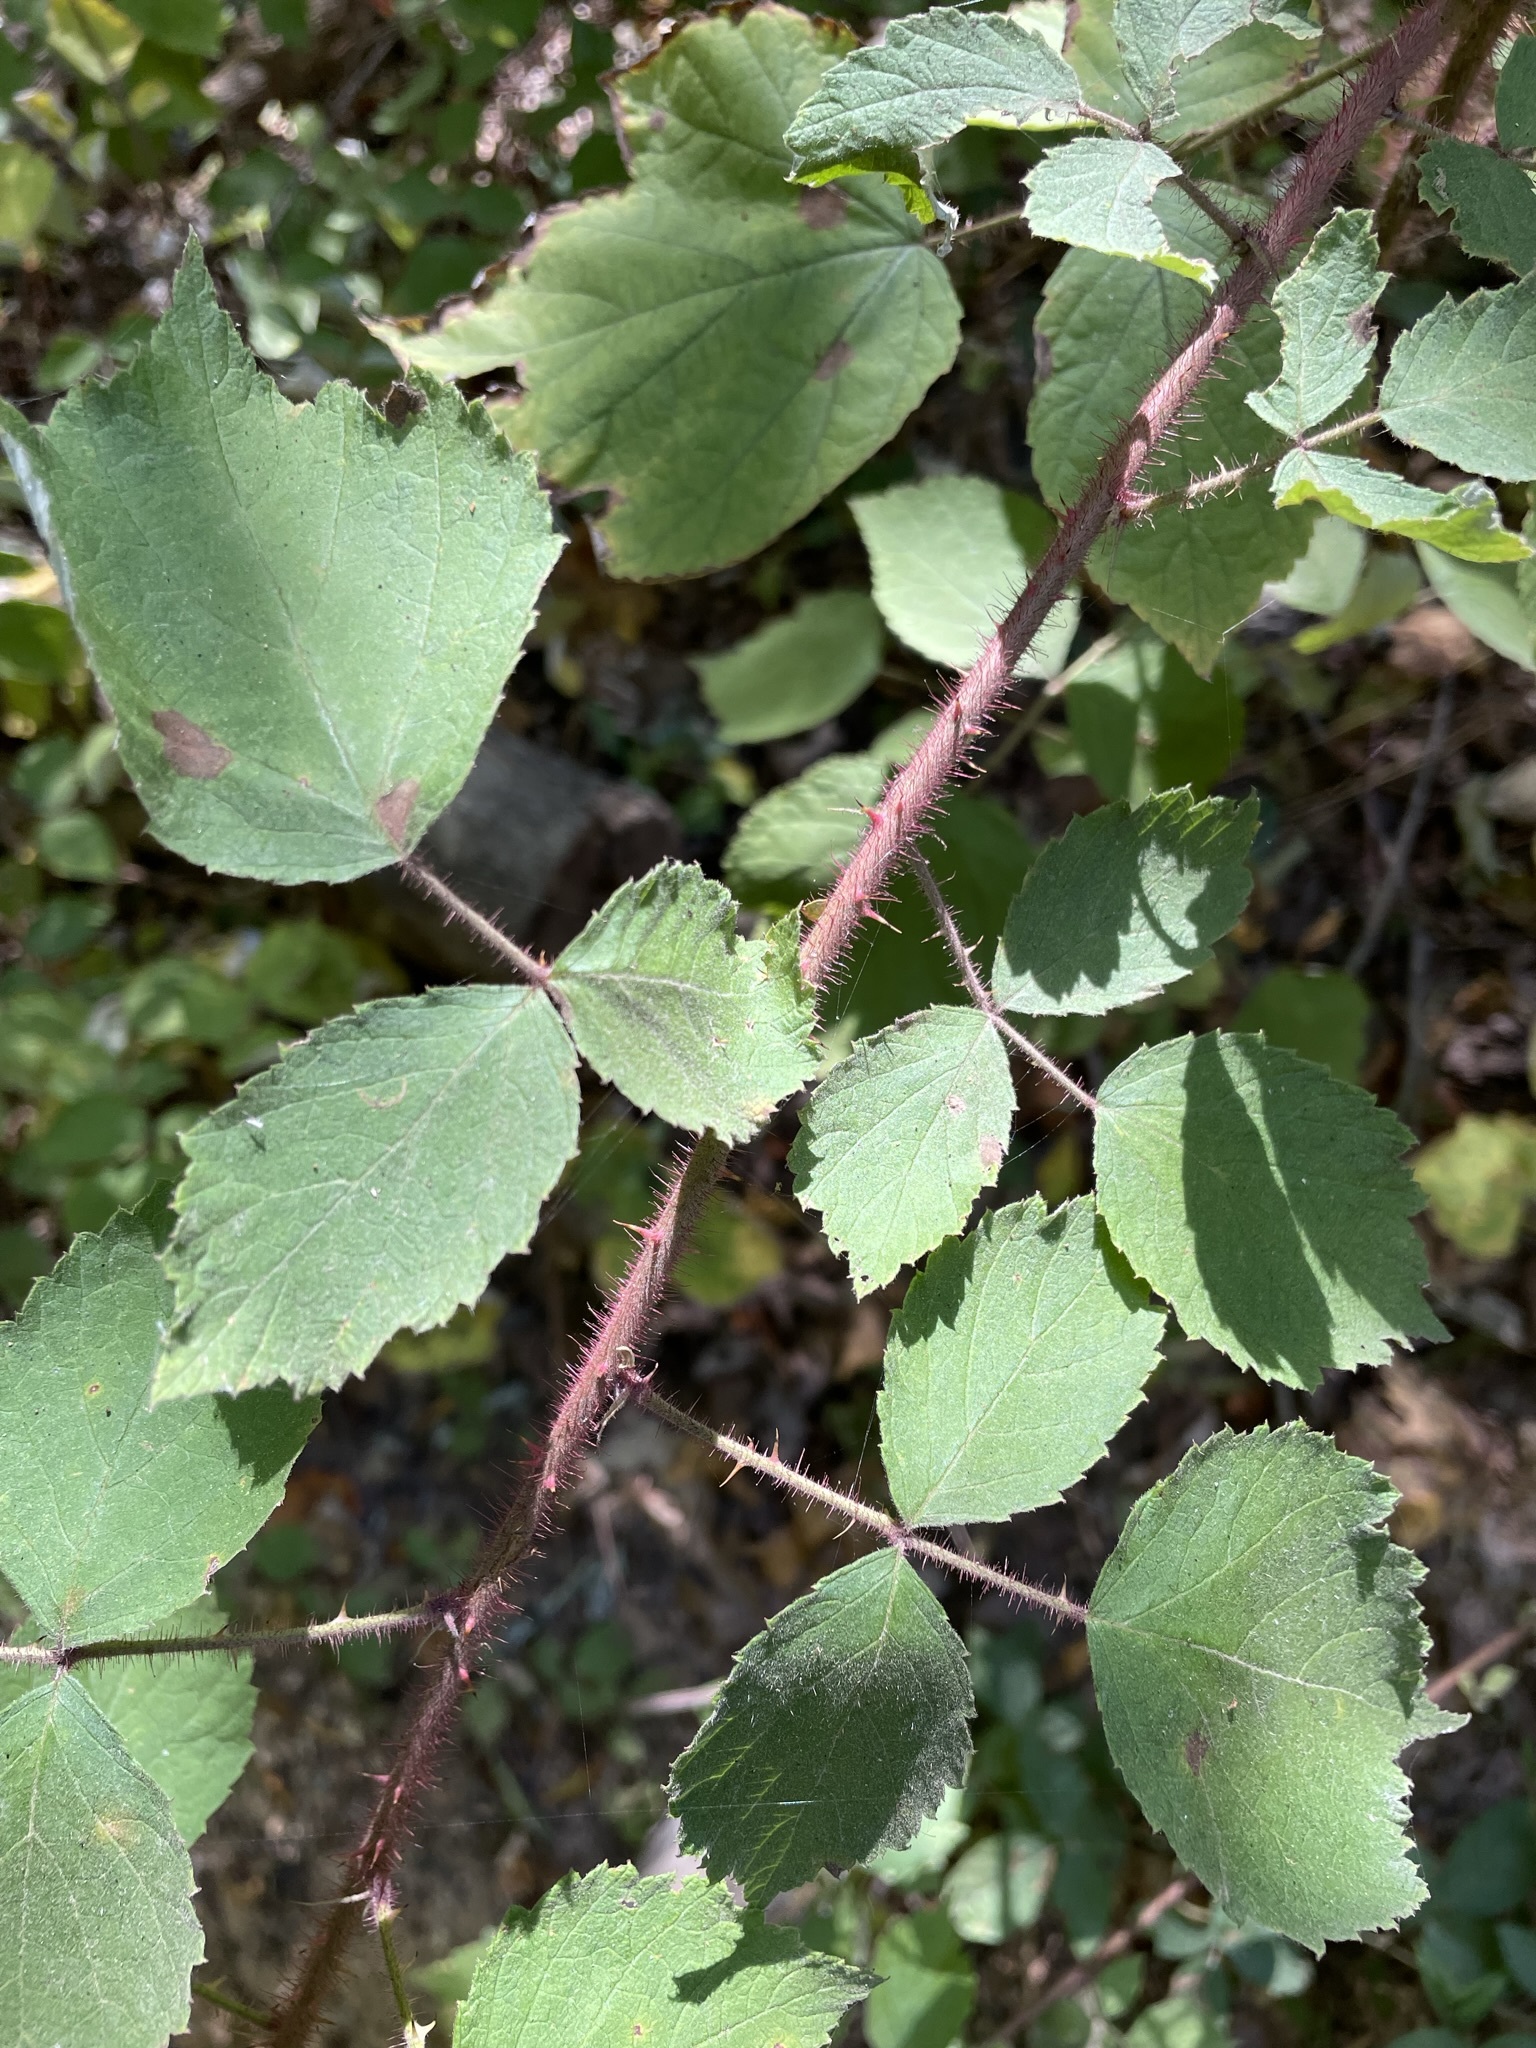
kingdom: Plantae
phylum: Tracheophyta
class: Magnoliopsida
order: Rosales
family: Rosaceae
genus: Rubus
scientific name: Rubus phoenicolasius
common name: Japanese wineberry
